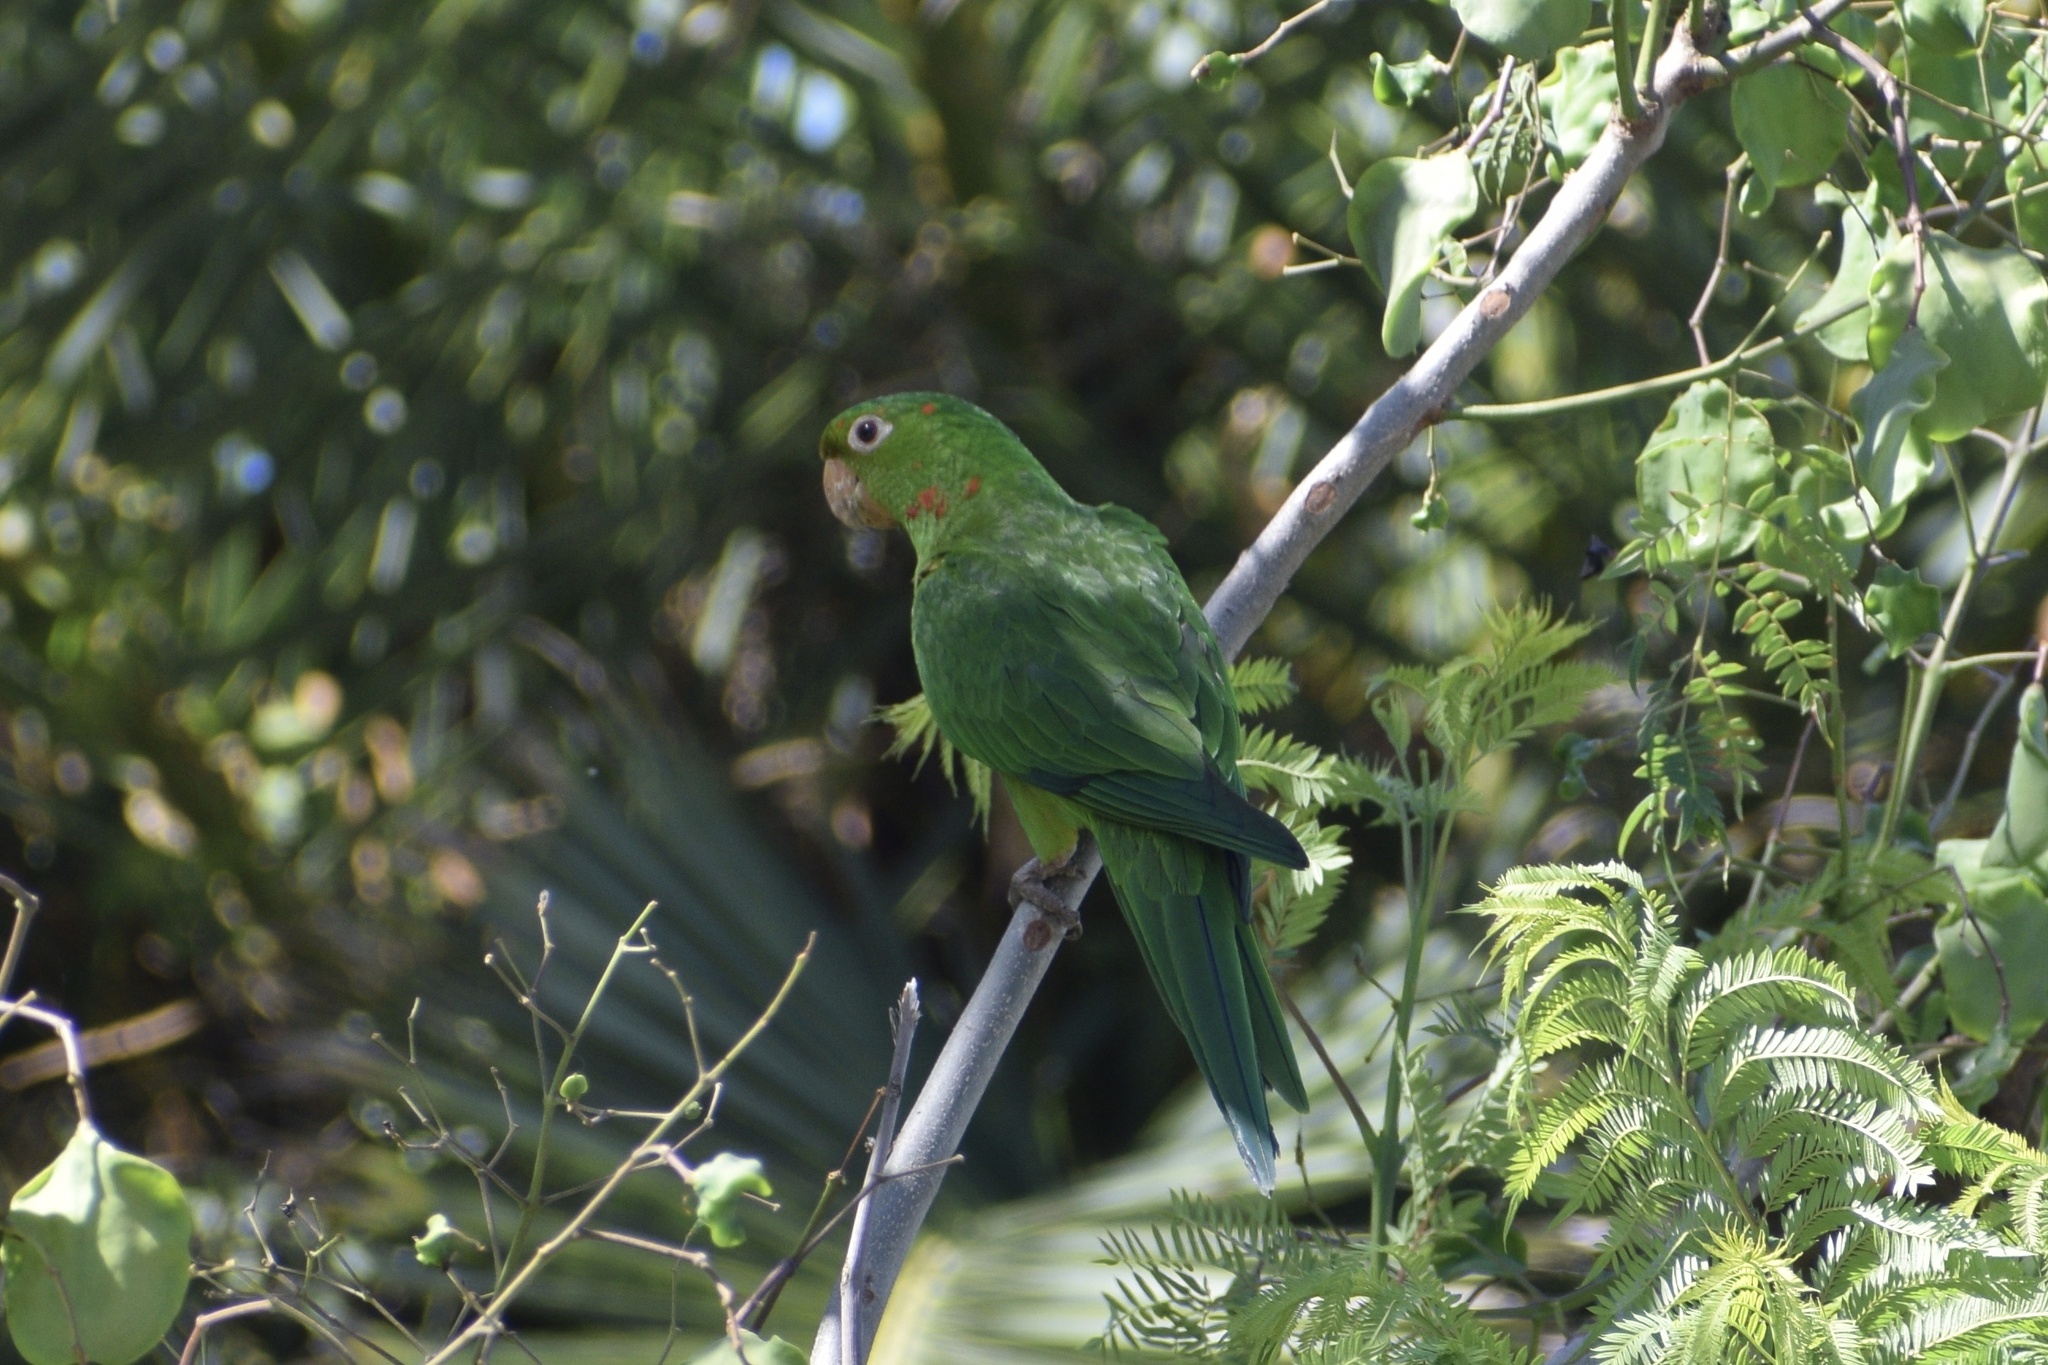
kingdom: Animalia
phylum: Chordata
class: Aves
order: Psittaciformes
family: Psittacidae
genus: Aratinga
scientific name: Aratinga leucophthalma
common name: White-eyed parakeet
